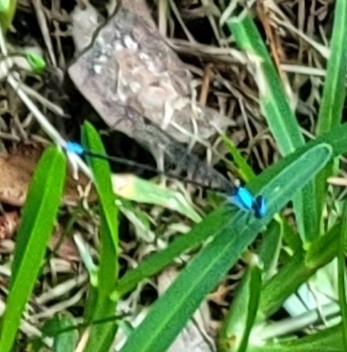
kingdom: Animalia
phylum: Arthropoda
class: Insecta
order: Odonata
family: Coenagrionidae
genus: Argia
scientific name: Argia apicalis
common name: Blue-fronted dancer
